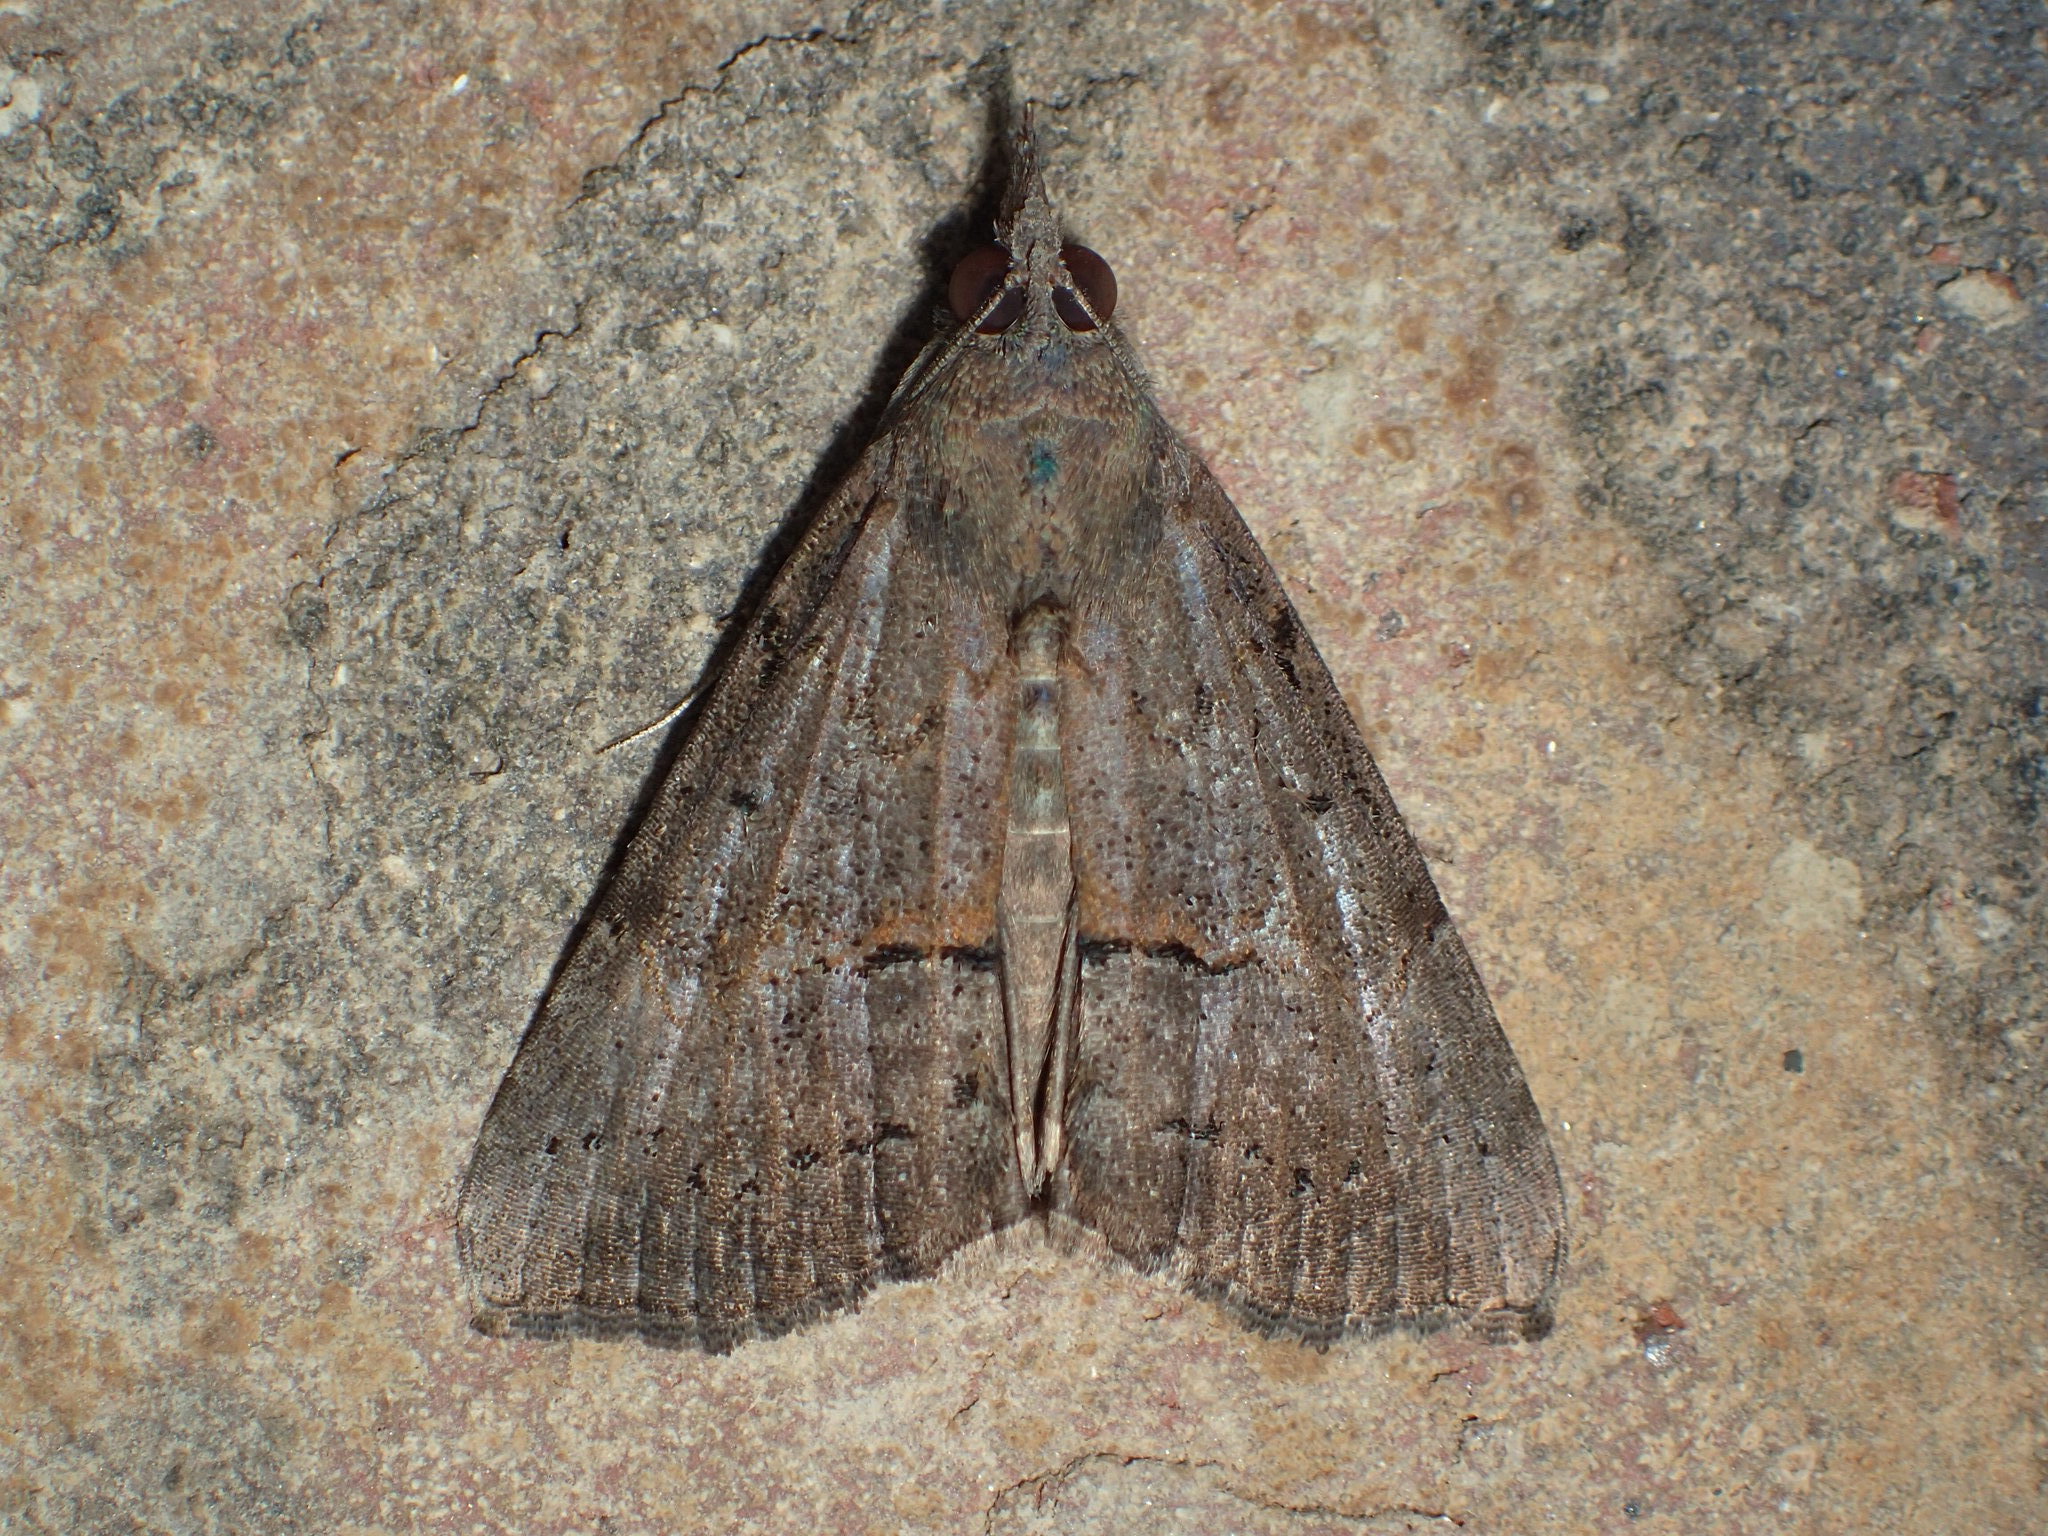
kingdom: Animalia
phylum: Arthropoda
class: Insecta
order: Lepidoptera
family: Erebidae
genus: Hypena
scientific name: Hypena scabra
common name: Green cloverworm
